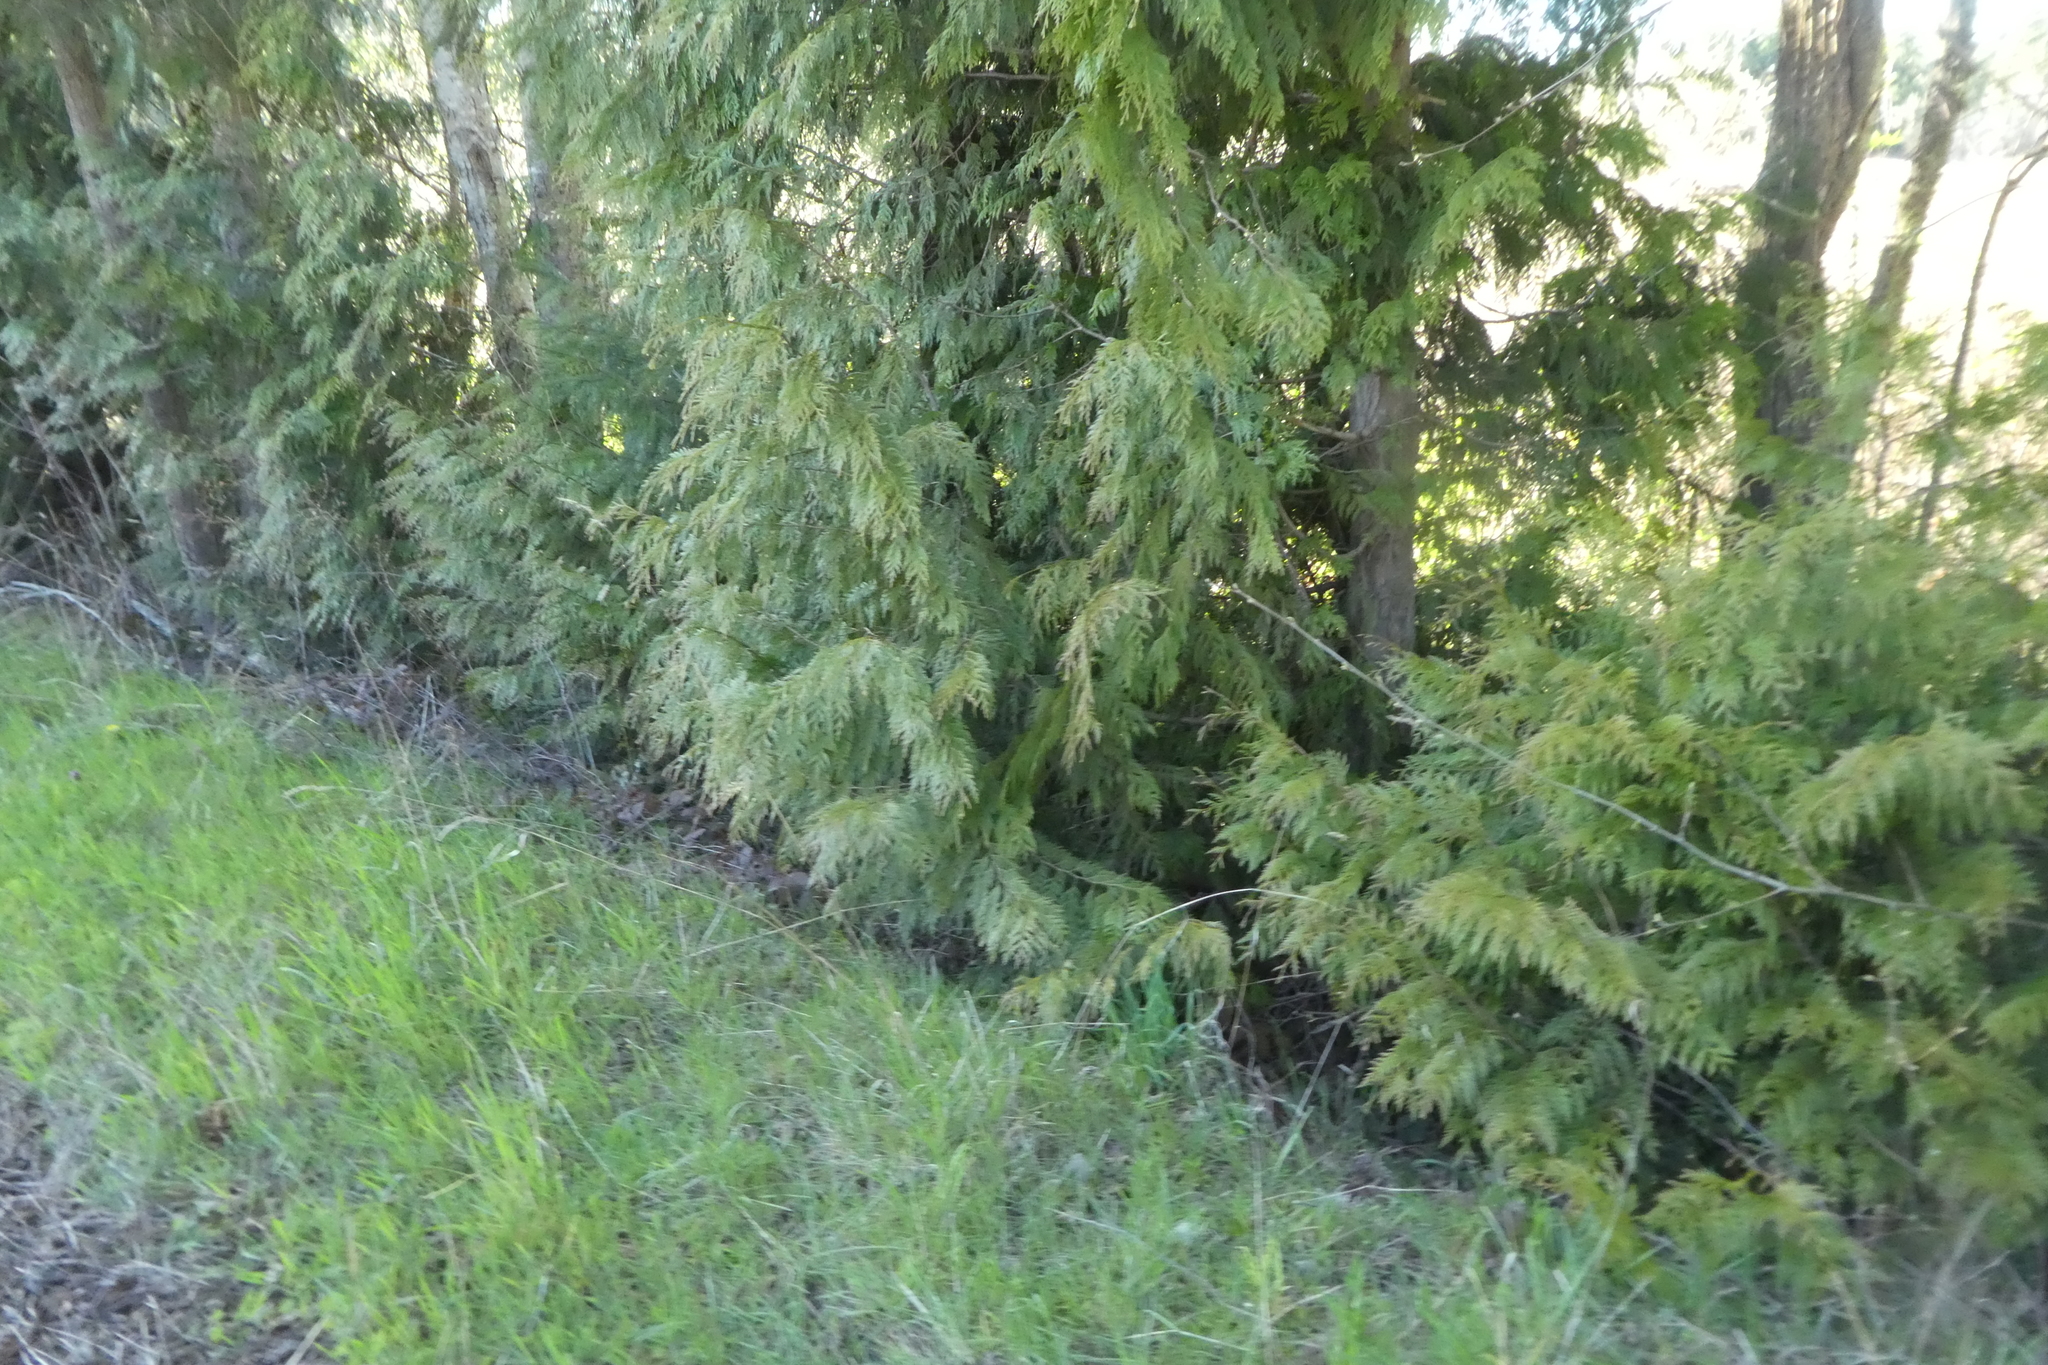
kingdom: Plantae
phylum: Tracheophyta
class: Pinopsida
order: Pinales
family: Cupressaceae
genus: Thuja
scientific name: Thuja plicata
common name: Western red-cedar
